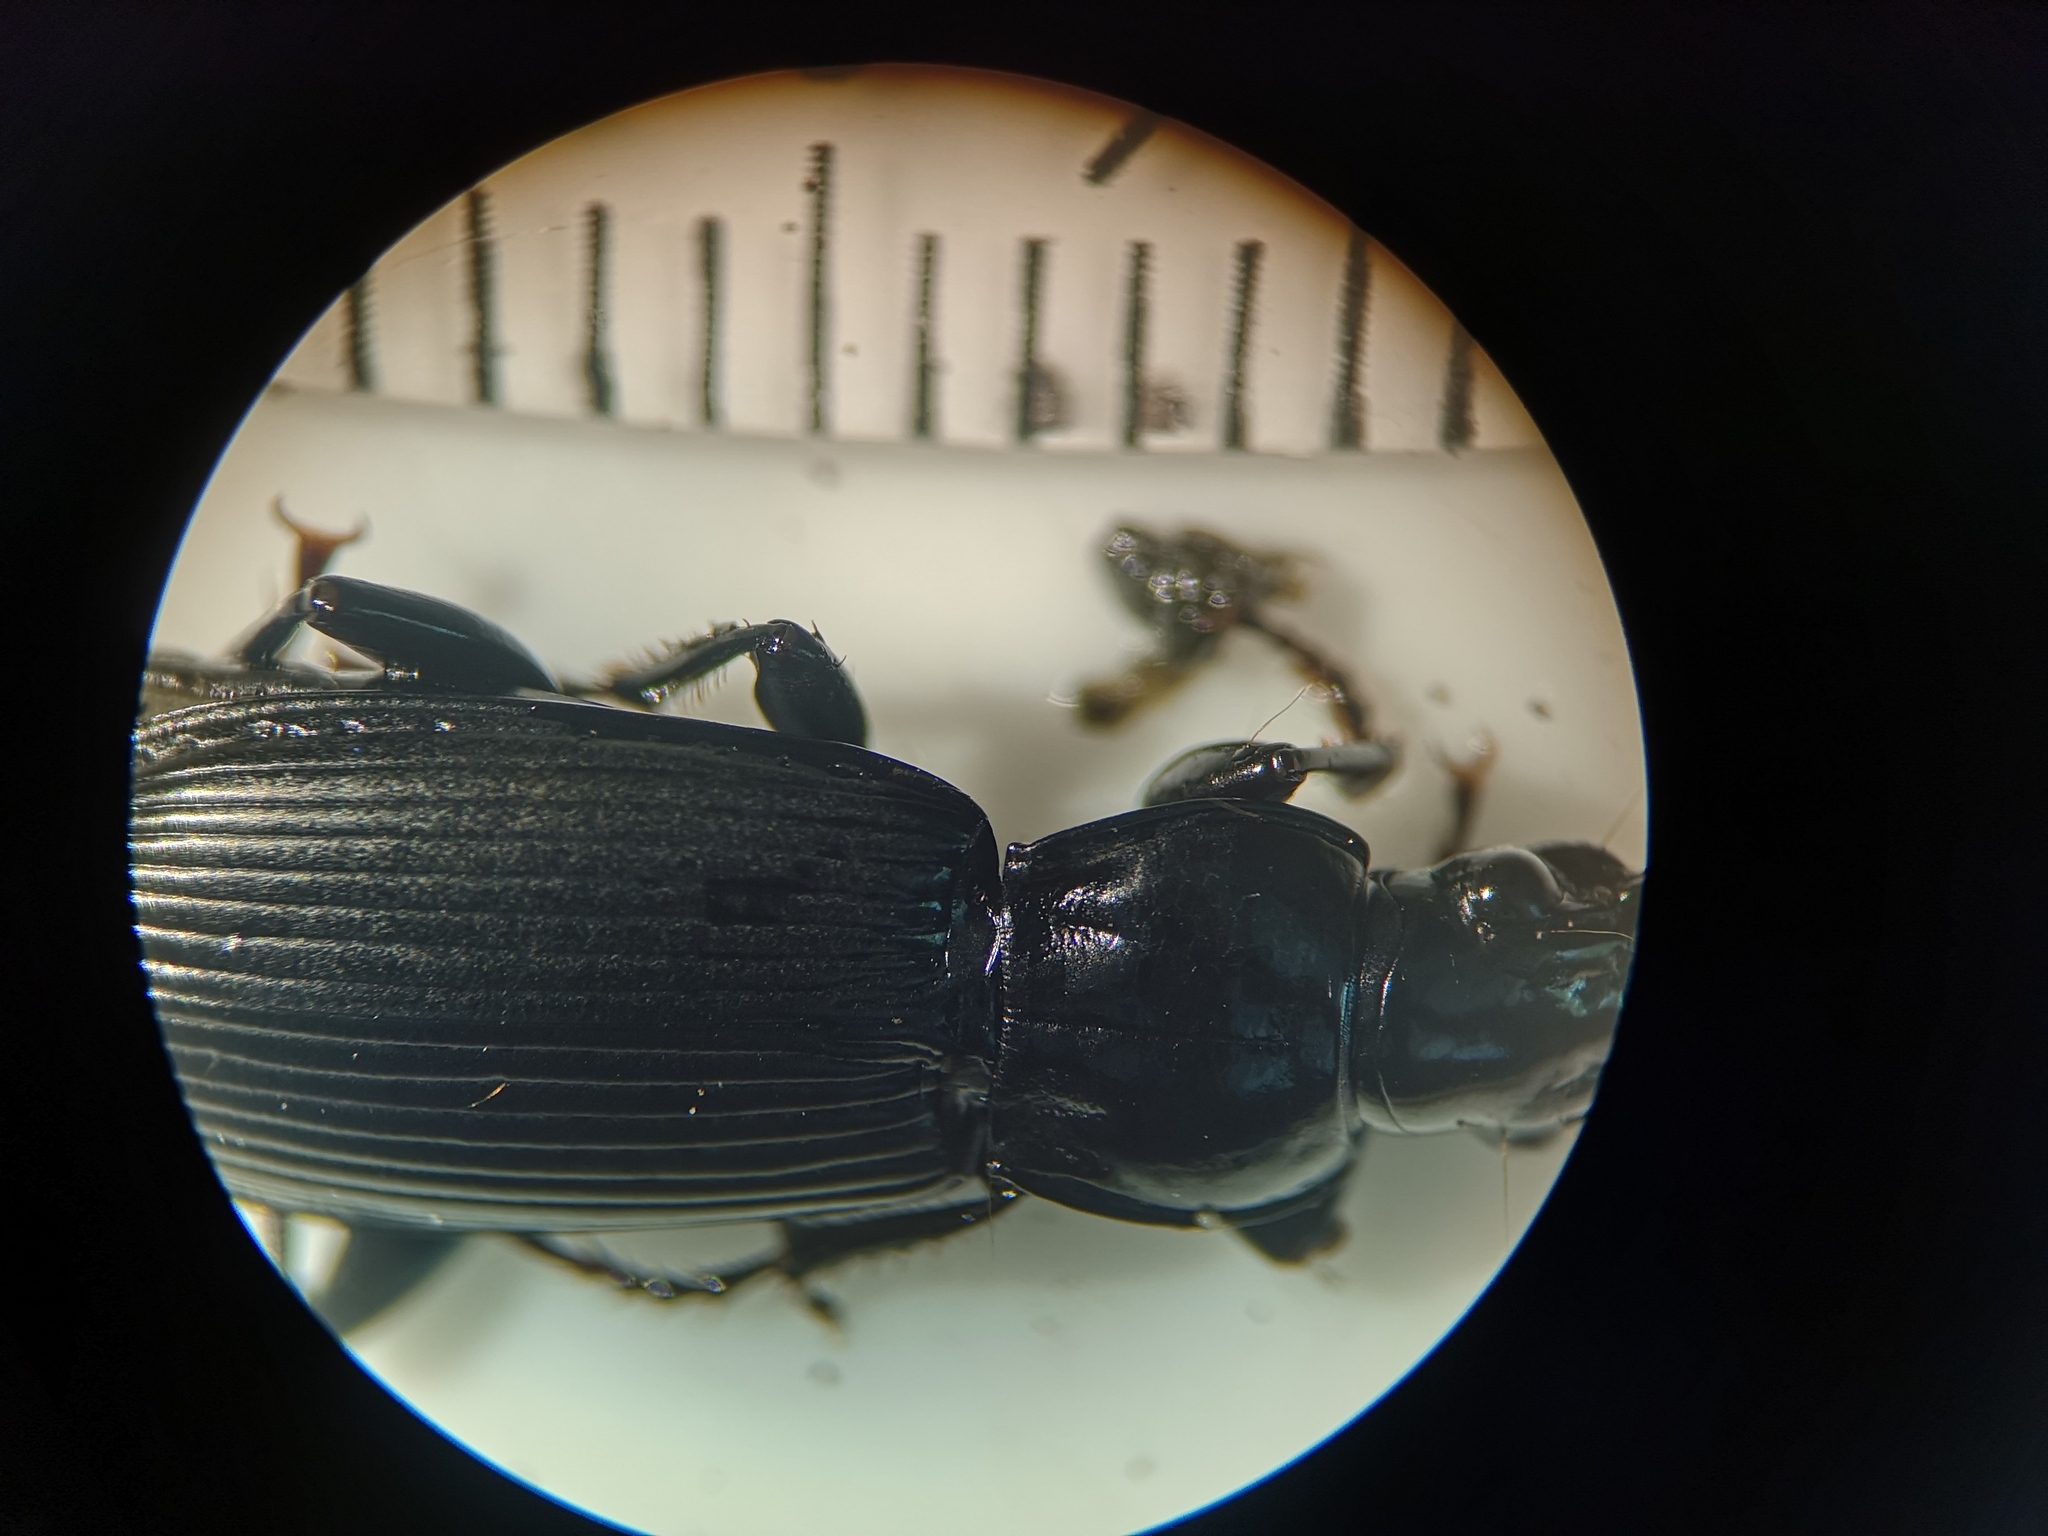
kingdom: Animalia
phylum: Arthropoda
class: Insecta
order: Coleoptera
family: Carabidae
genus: Pterostichus
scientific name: Pterostichus melanarius
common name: European dark harp ground beetle
